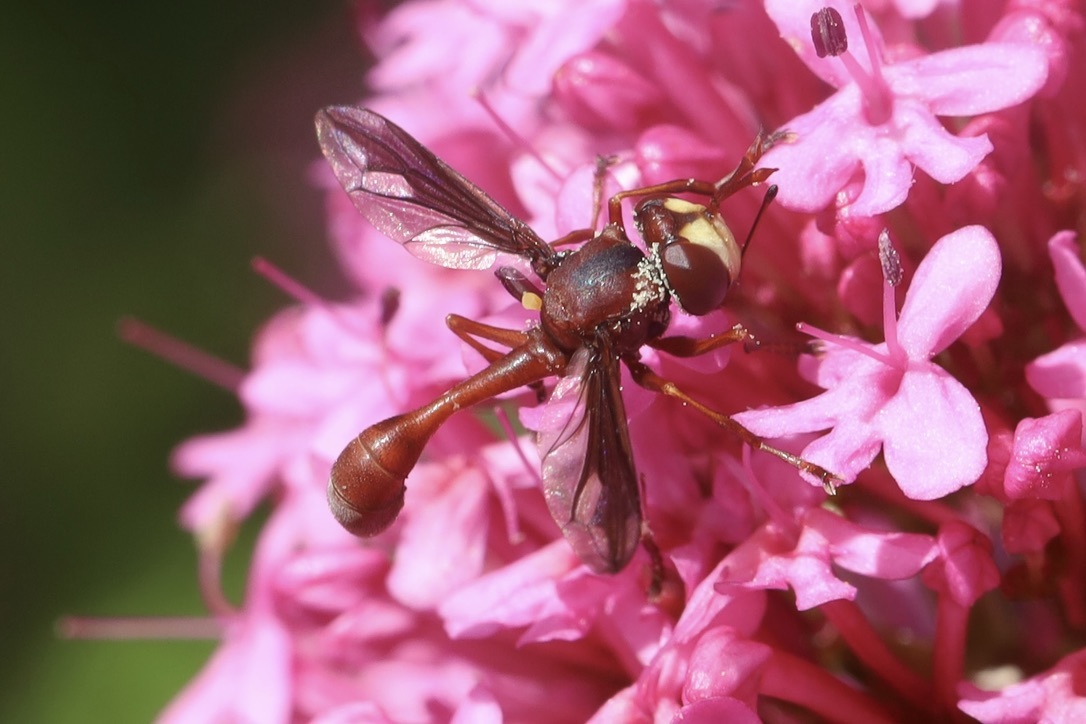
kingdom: Animalia
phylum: Arthropoda
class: Insecta
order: Diptera
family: Conopidae
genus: Physocephala
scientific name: Physocephala burgessi
